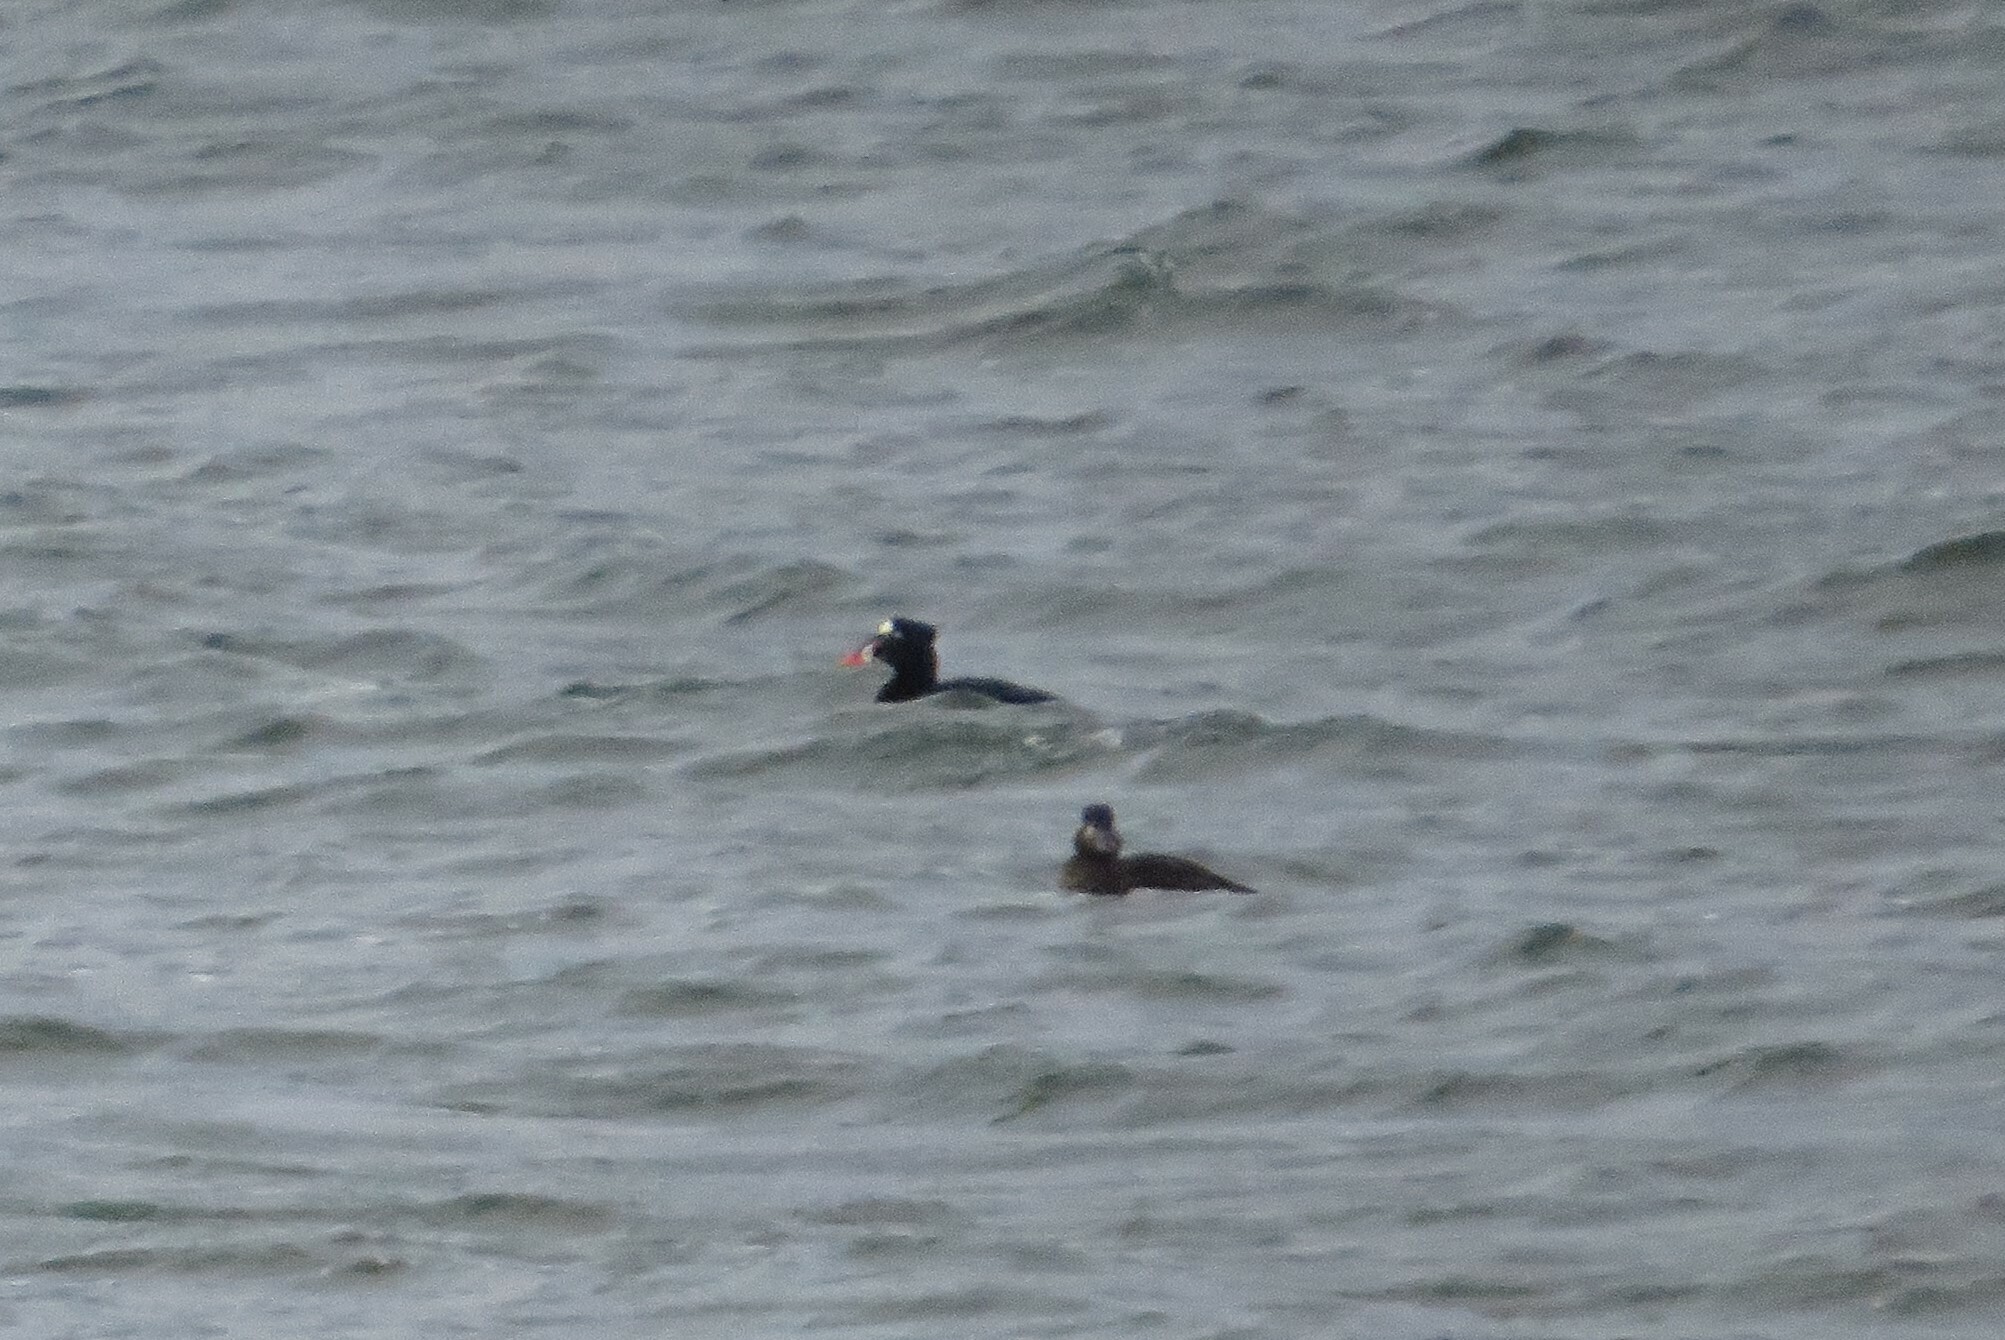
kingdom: Animalia
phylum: Chordata
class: Aves
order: Anseriformes
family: Anatidae
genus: Melanitta
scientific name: Melanitta perspicillata
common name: Surf scoter
